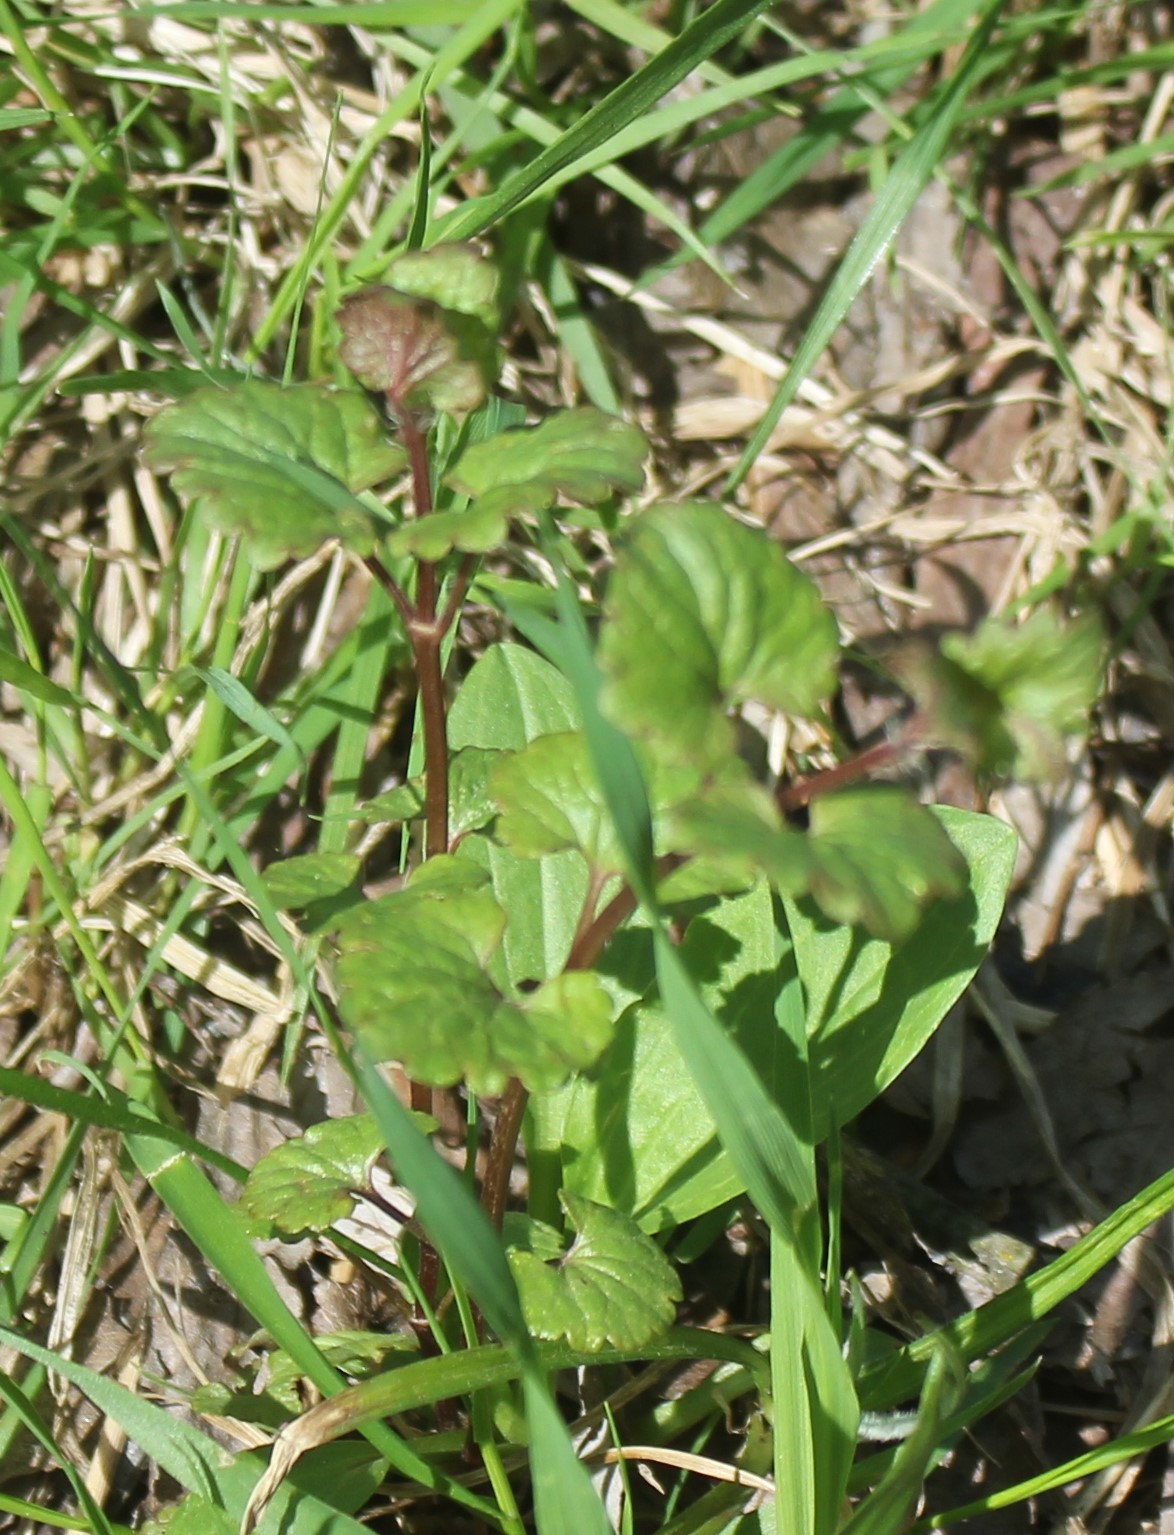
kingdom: Plantae
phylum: Tracheophyta
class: Magnoliopsida
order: Lamiales
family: Lamiaceae
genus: Glechoma
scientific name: Glechoma hederacea
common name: Ground ivy
